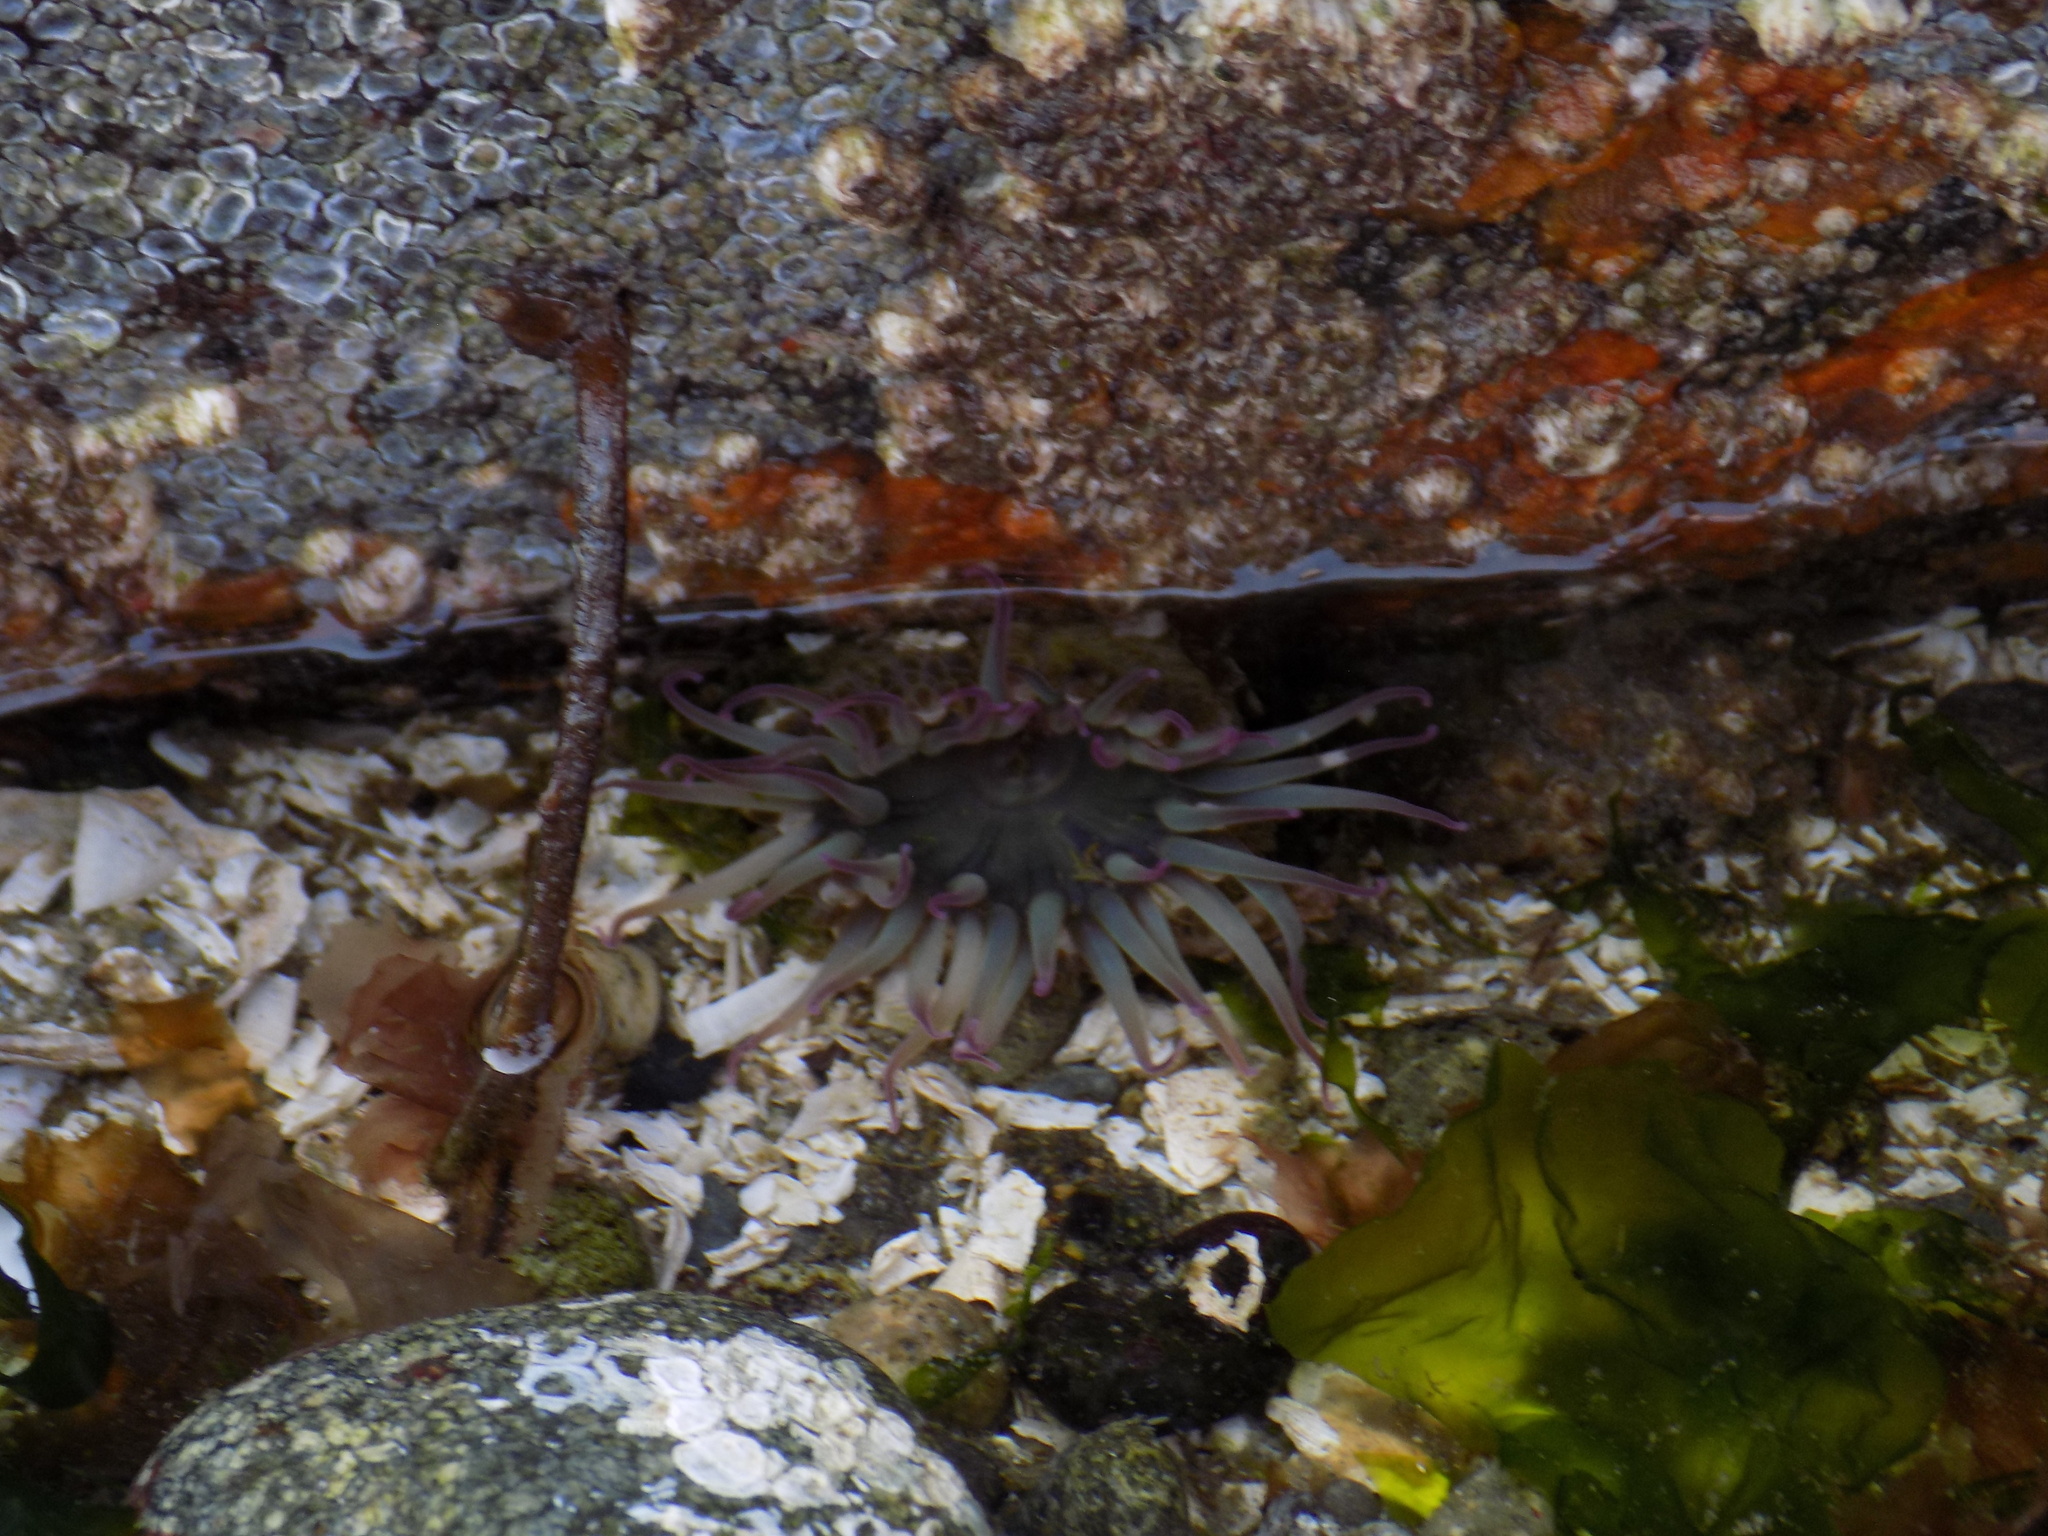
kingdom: Animalia
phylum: Cnidaria
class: Anthozoa
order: Actiniaria
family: Actiniidae
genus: Anthopleura
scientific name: Anthopleura elegantissima
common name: Clonal anemone
